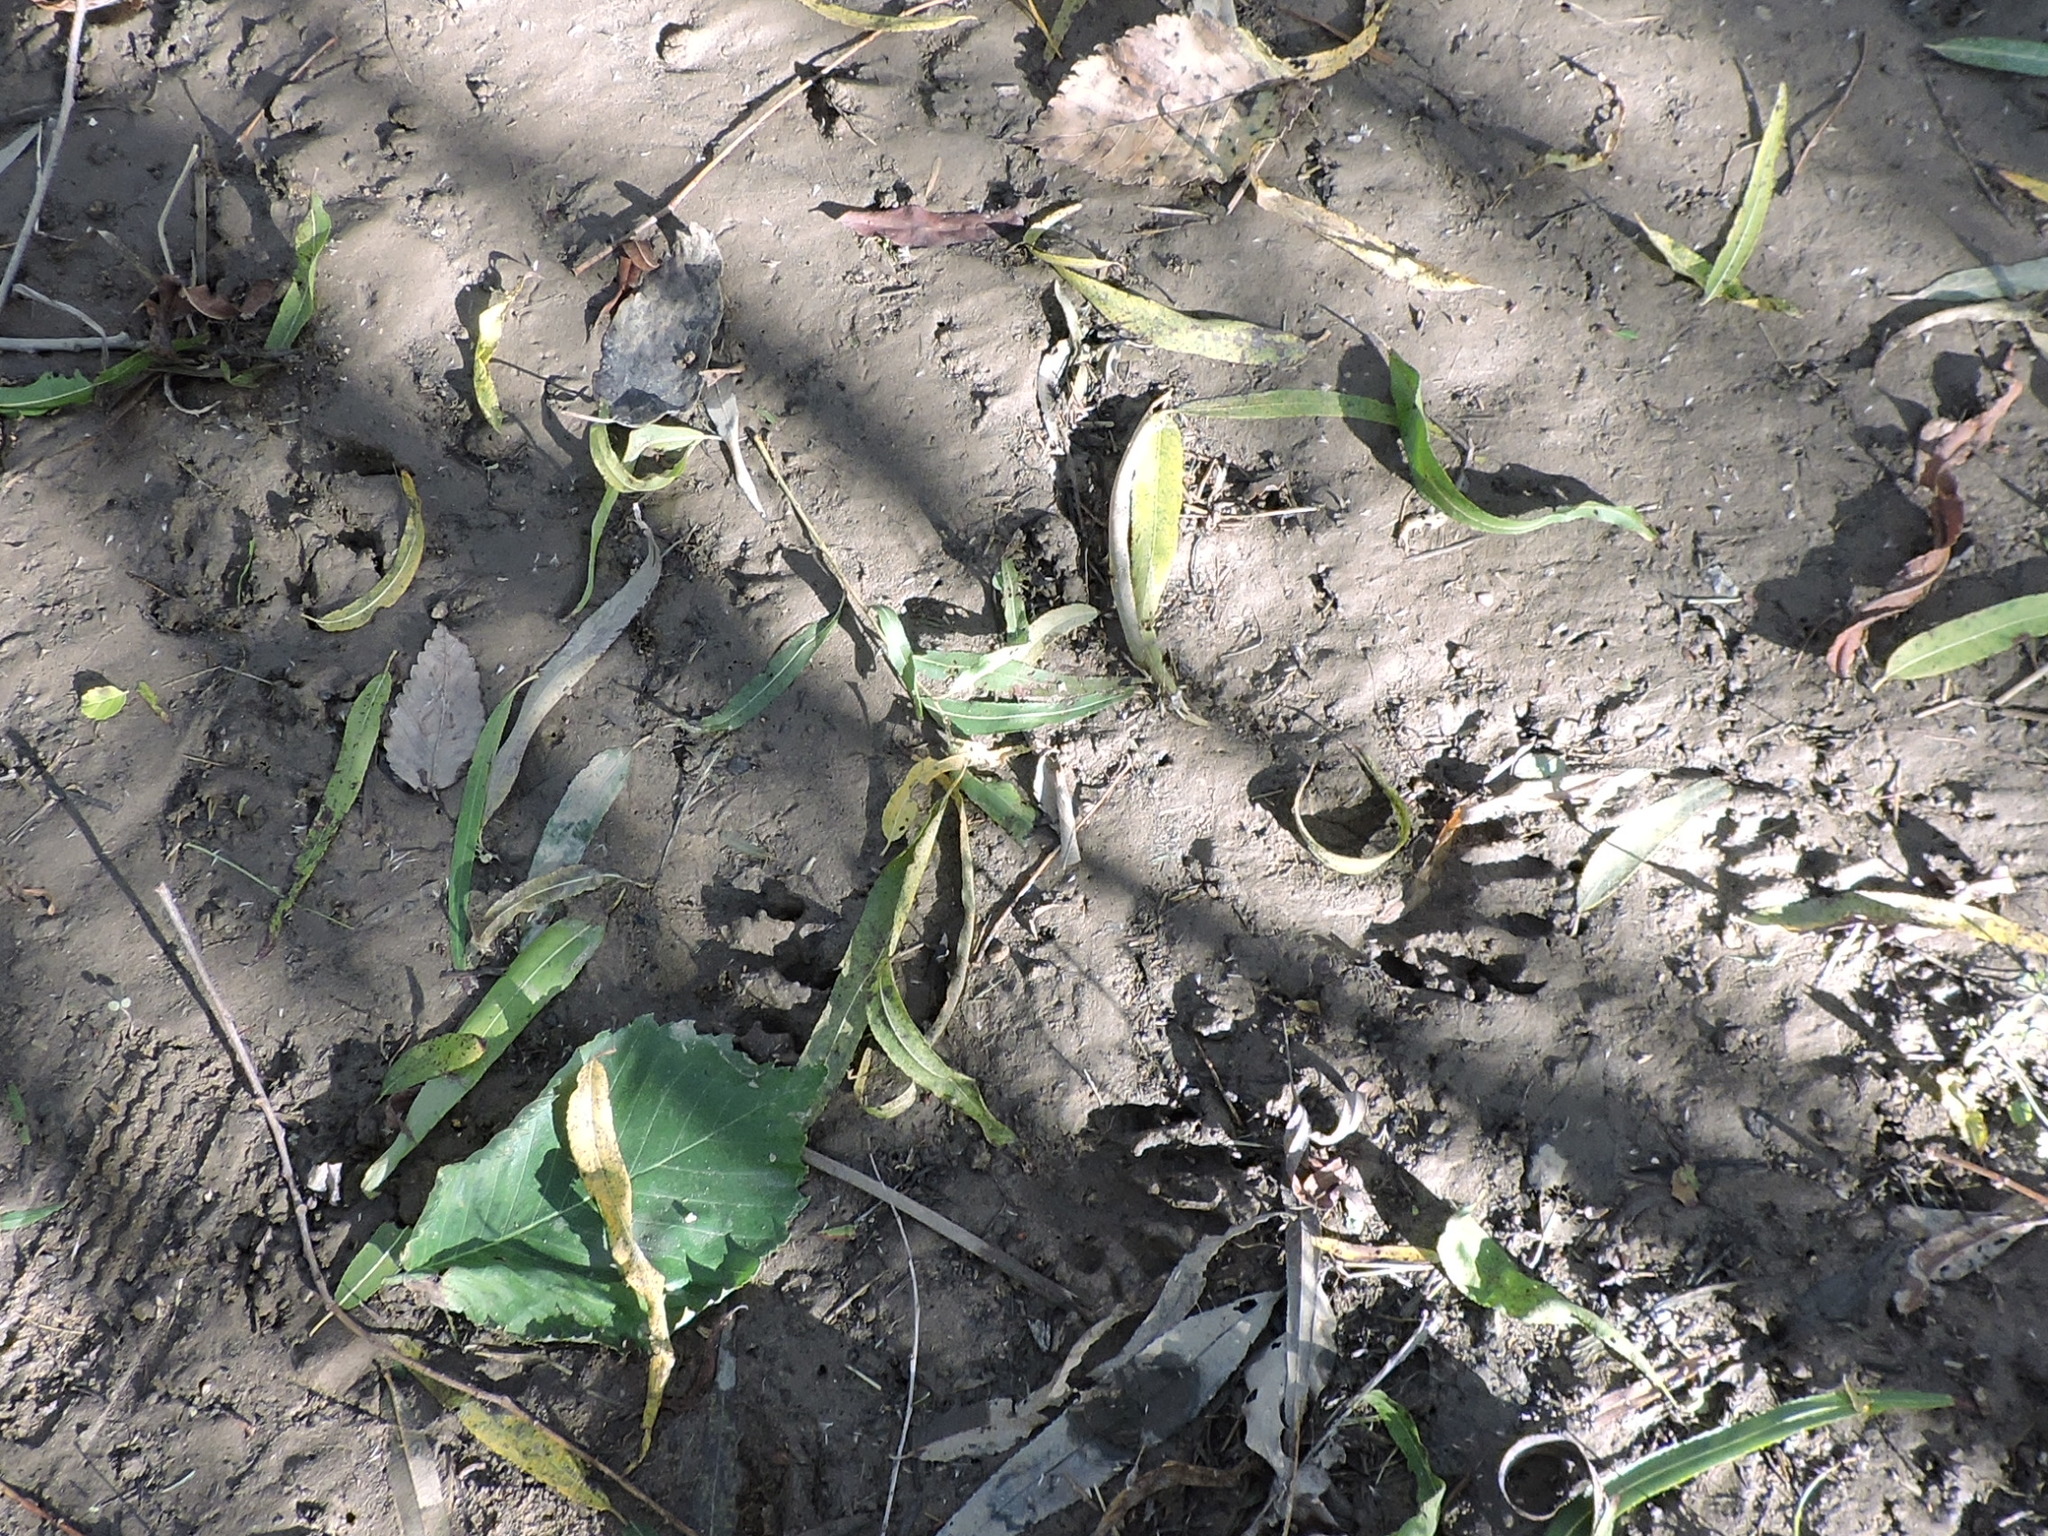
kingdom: Animalia
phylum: Chordata
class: Mammalia
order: Carnivora
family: Procyonidae
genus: Procyon
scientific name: Procyon lotor
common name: Raccoon
